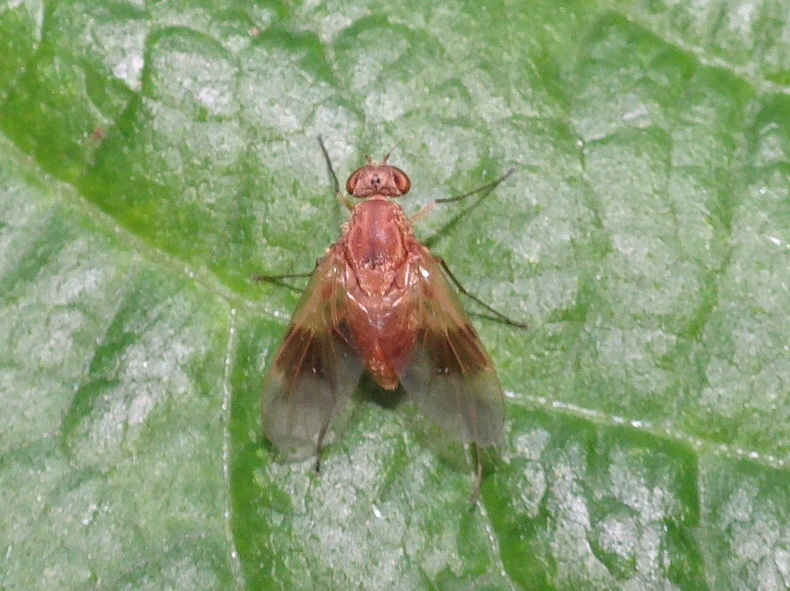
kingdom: Animalia
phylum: Arthropoda
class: Insecta
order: Diptera
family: Rhagionidae
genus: Chrysopilus
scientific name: Chrysopilus quadratus
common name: Quadrate snipe fly
